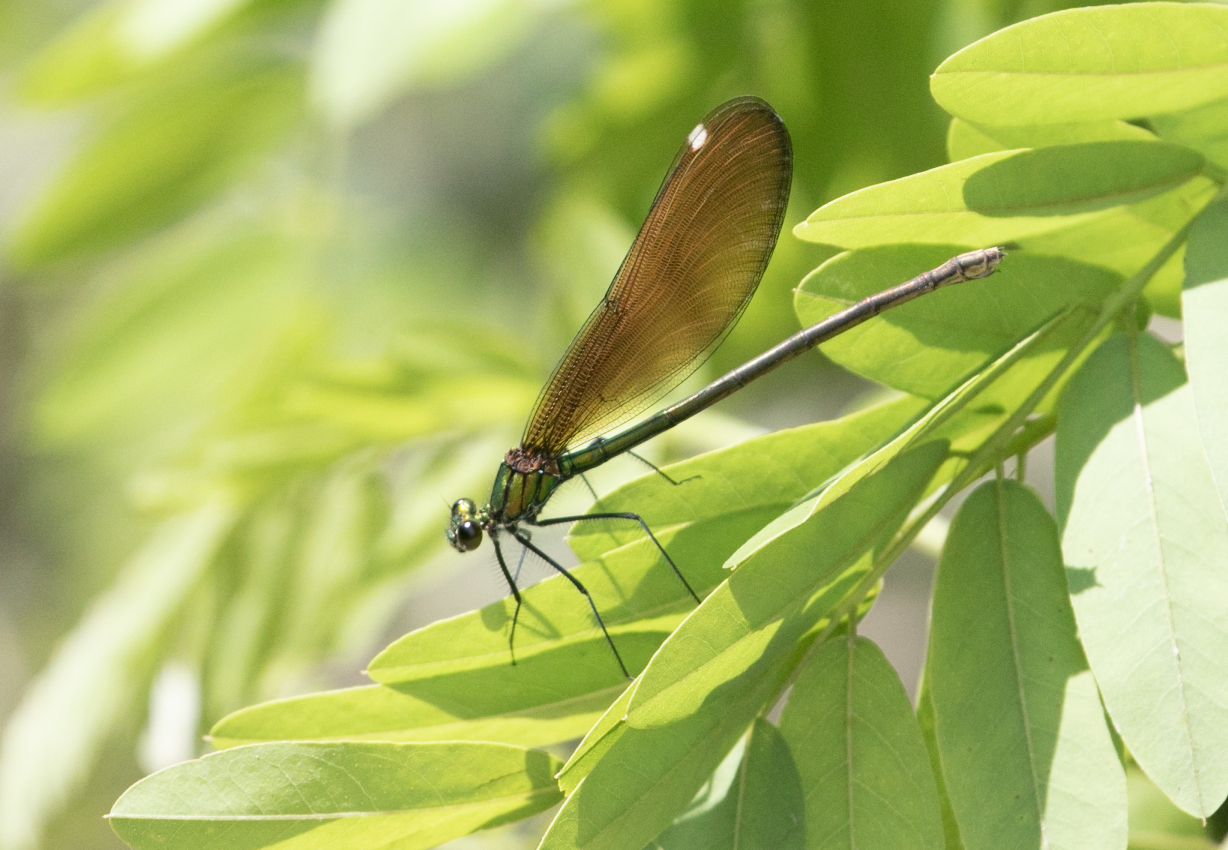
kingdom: Animalia
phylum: Arthropoda
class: Insecta
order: Odonata
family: Calopterygidae
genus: Calopteryx
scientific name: Calopteryx virgo
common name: Beautiful demoiselle
